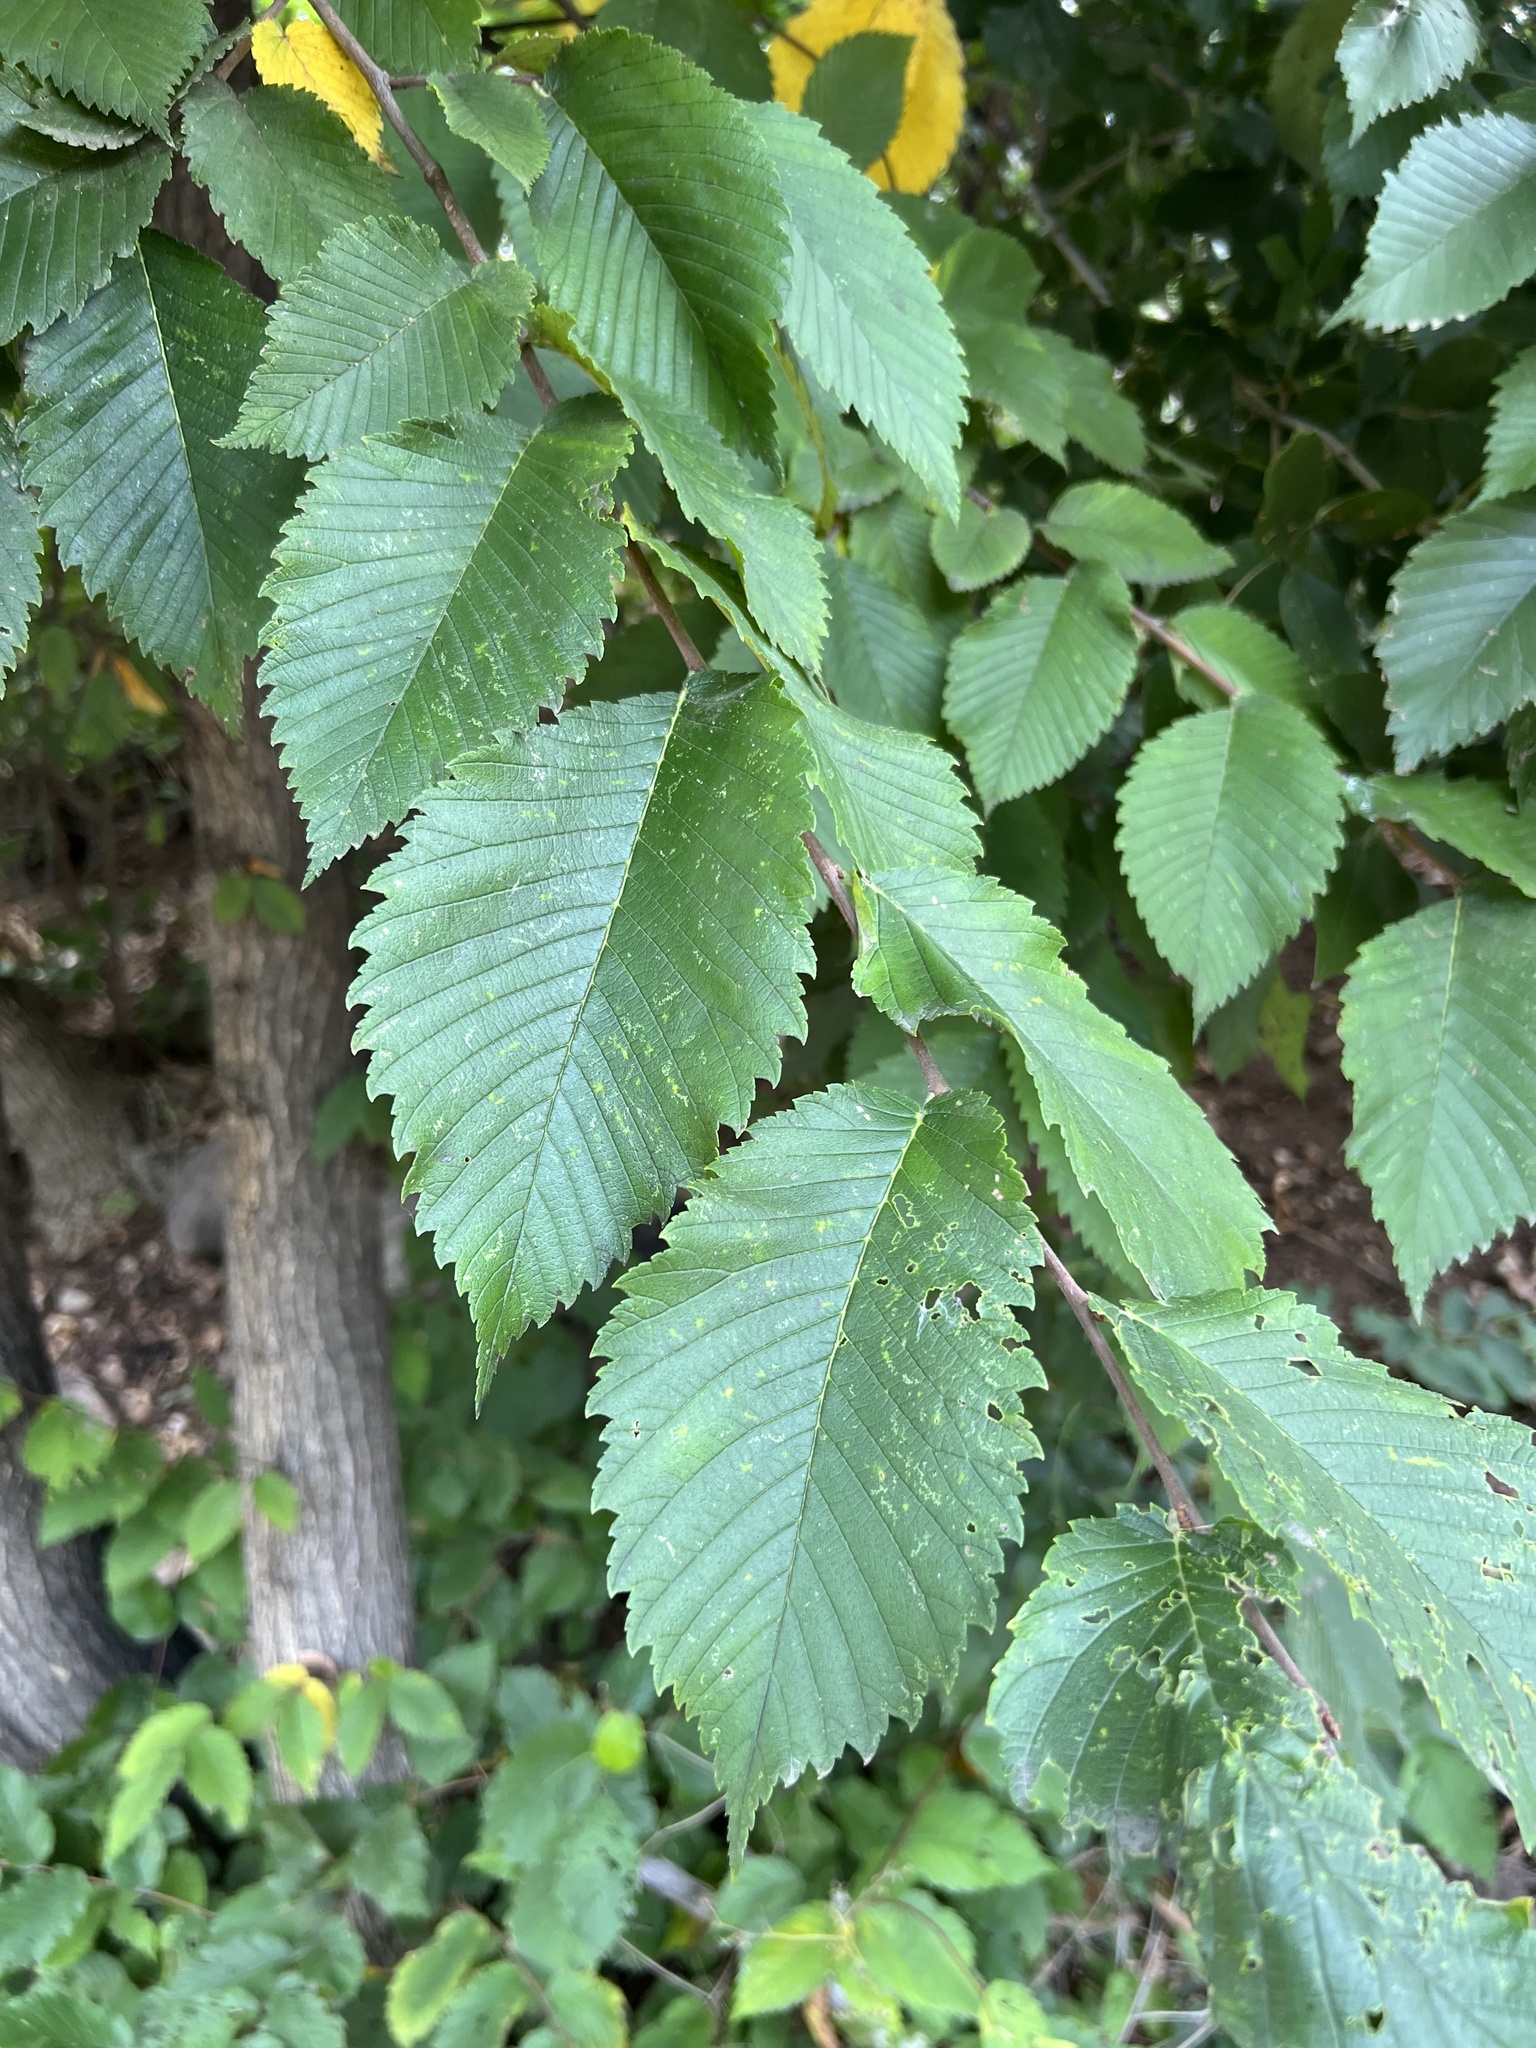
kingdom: Plantae
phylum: Tracheophyta
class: Magnoliopsida
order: Rosales
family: Ulmaceae
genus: Ulmus
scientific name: Ulmus americana
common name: American elm
